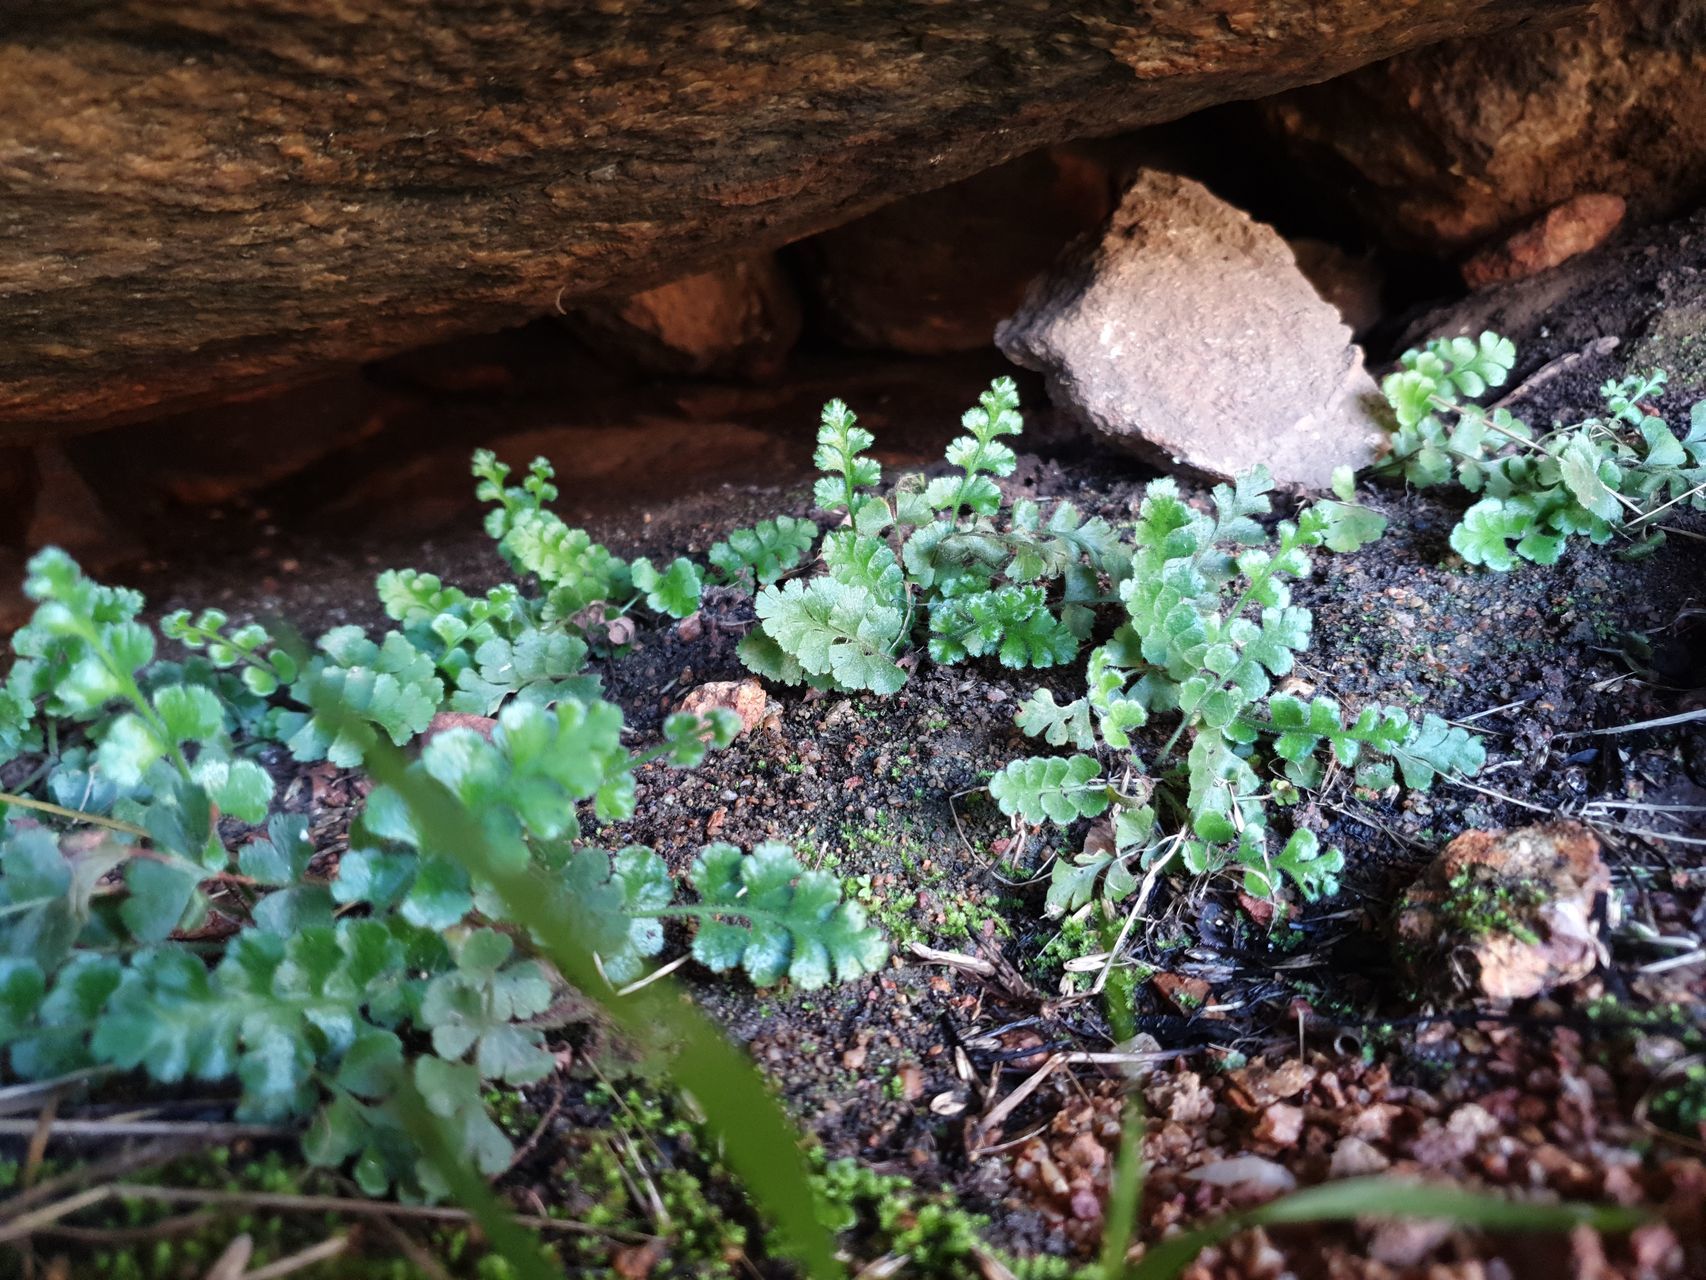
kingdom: Plantae
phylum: Tracheophyta
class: Polypodiopsida
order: Polypodiales
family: Aspleniaceae
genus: Asplenium
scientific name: Asplenium subglandulosum
